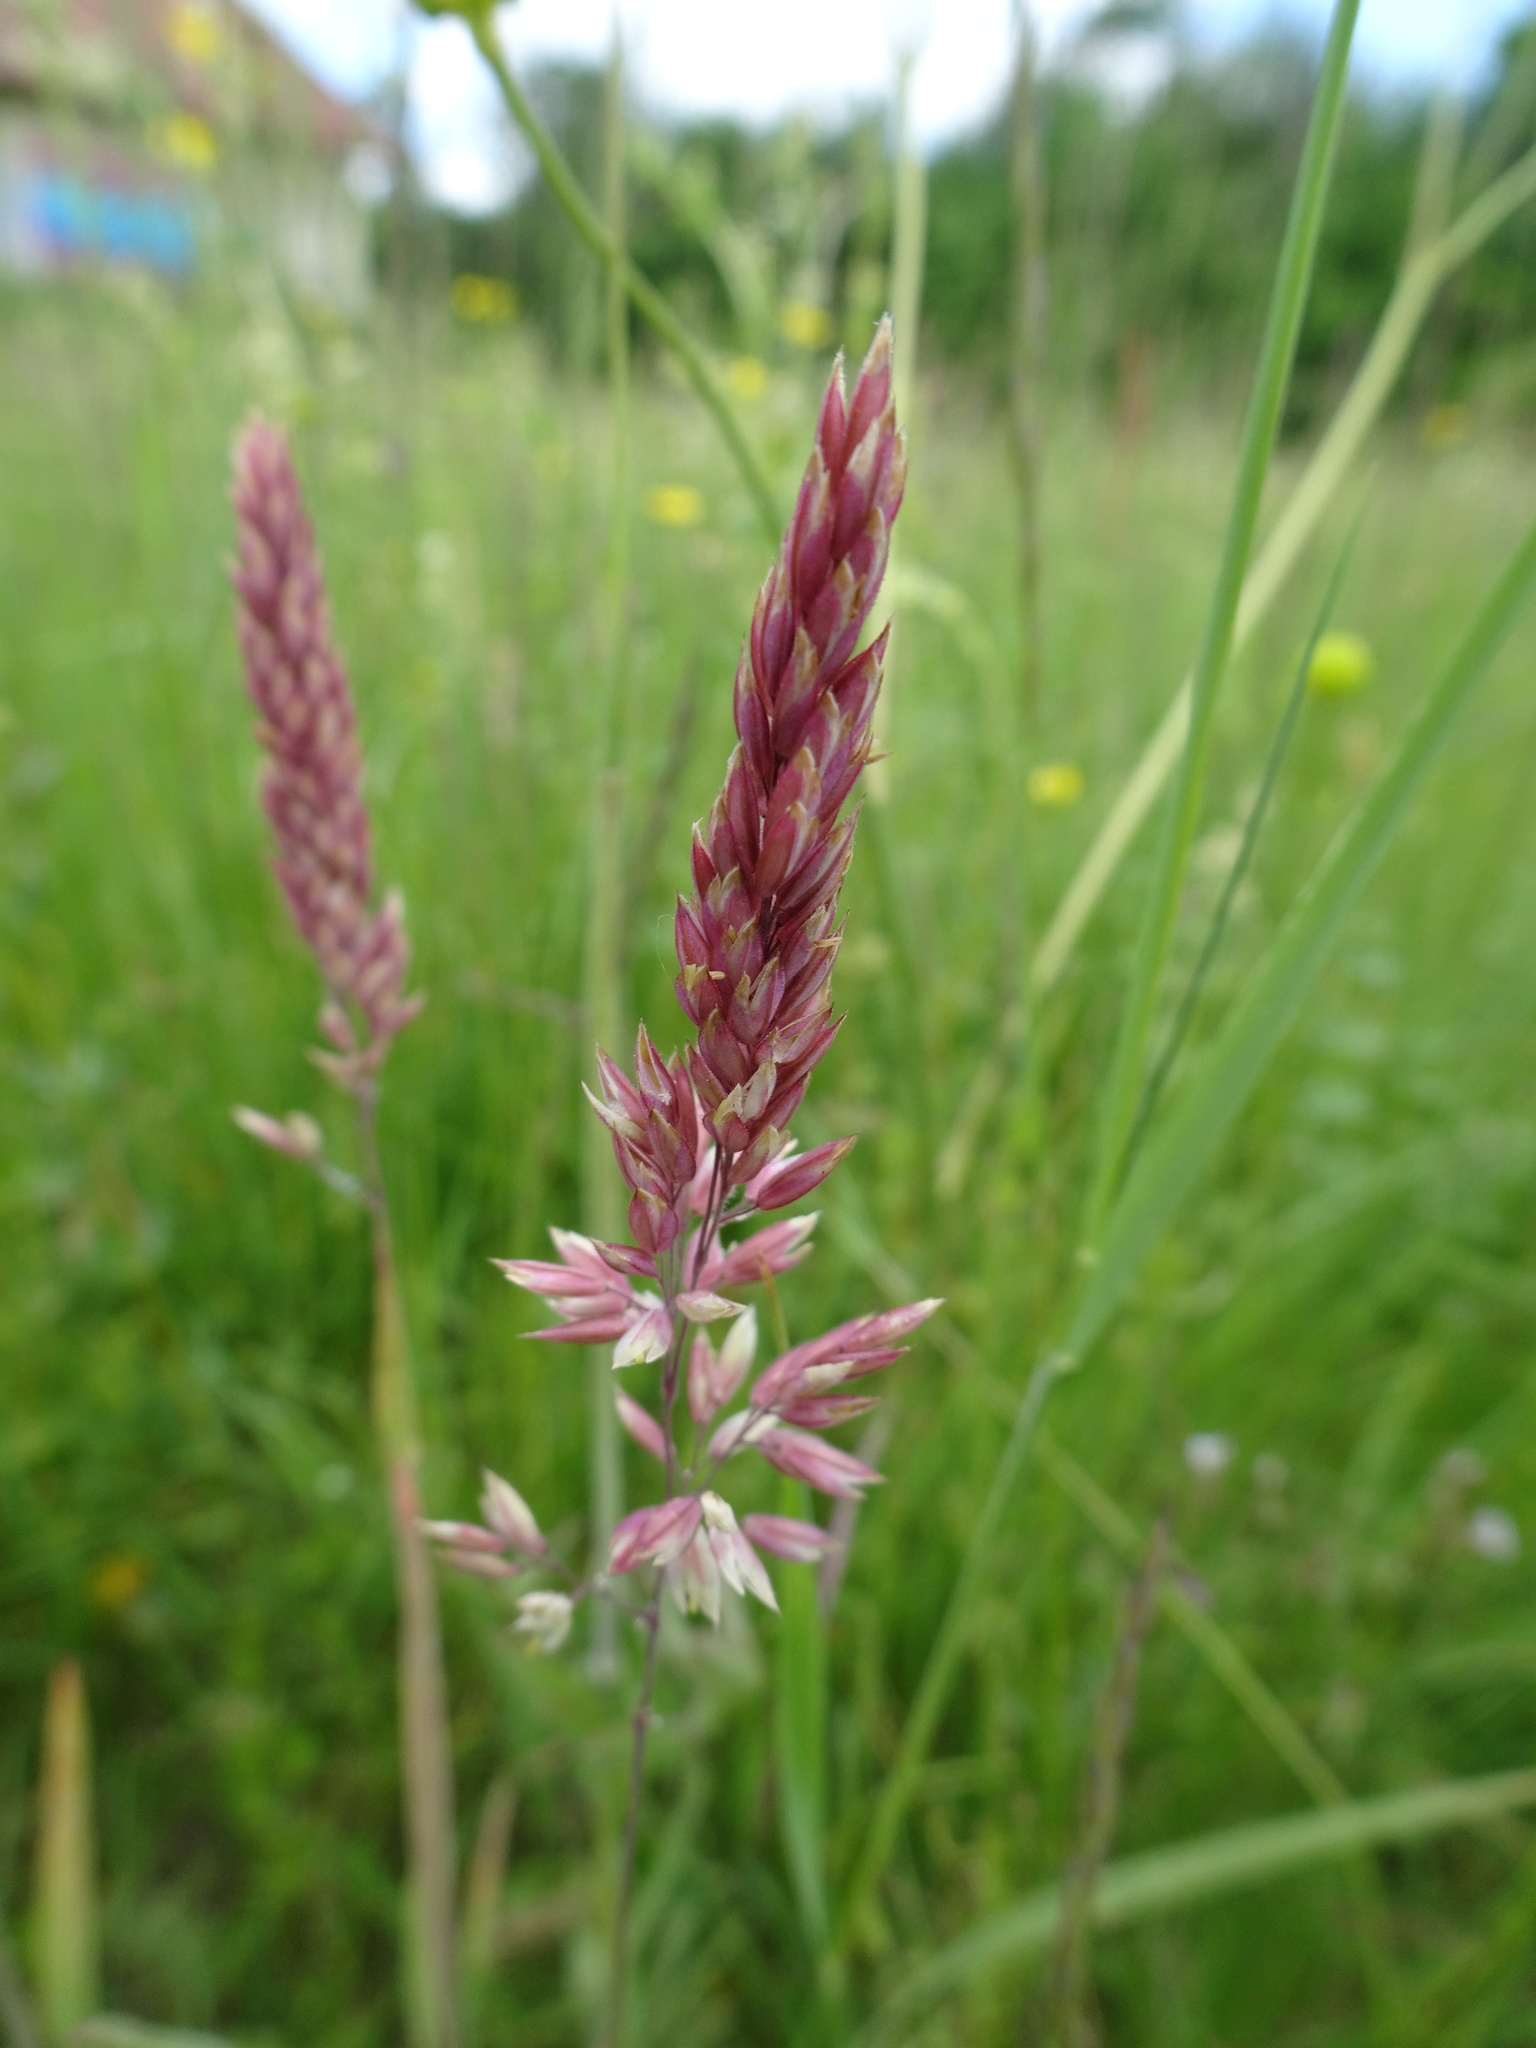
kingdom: Plantae
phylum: Tracheophyta
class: Liliopsida
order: Poales
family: Poaceae
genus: Holcus
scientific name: Holcus lanatus
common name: Yorkshire-fog
